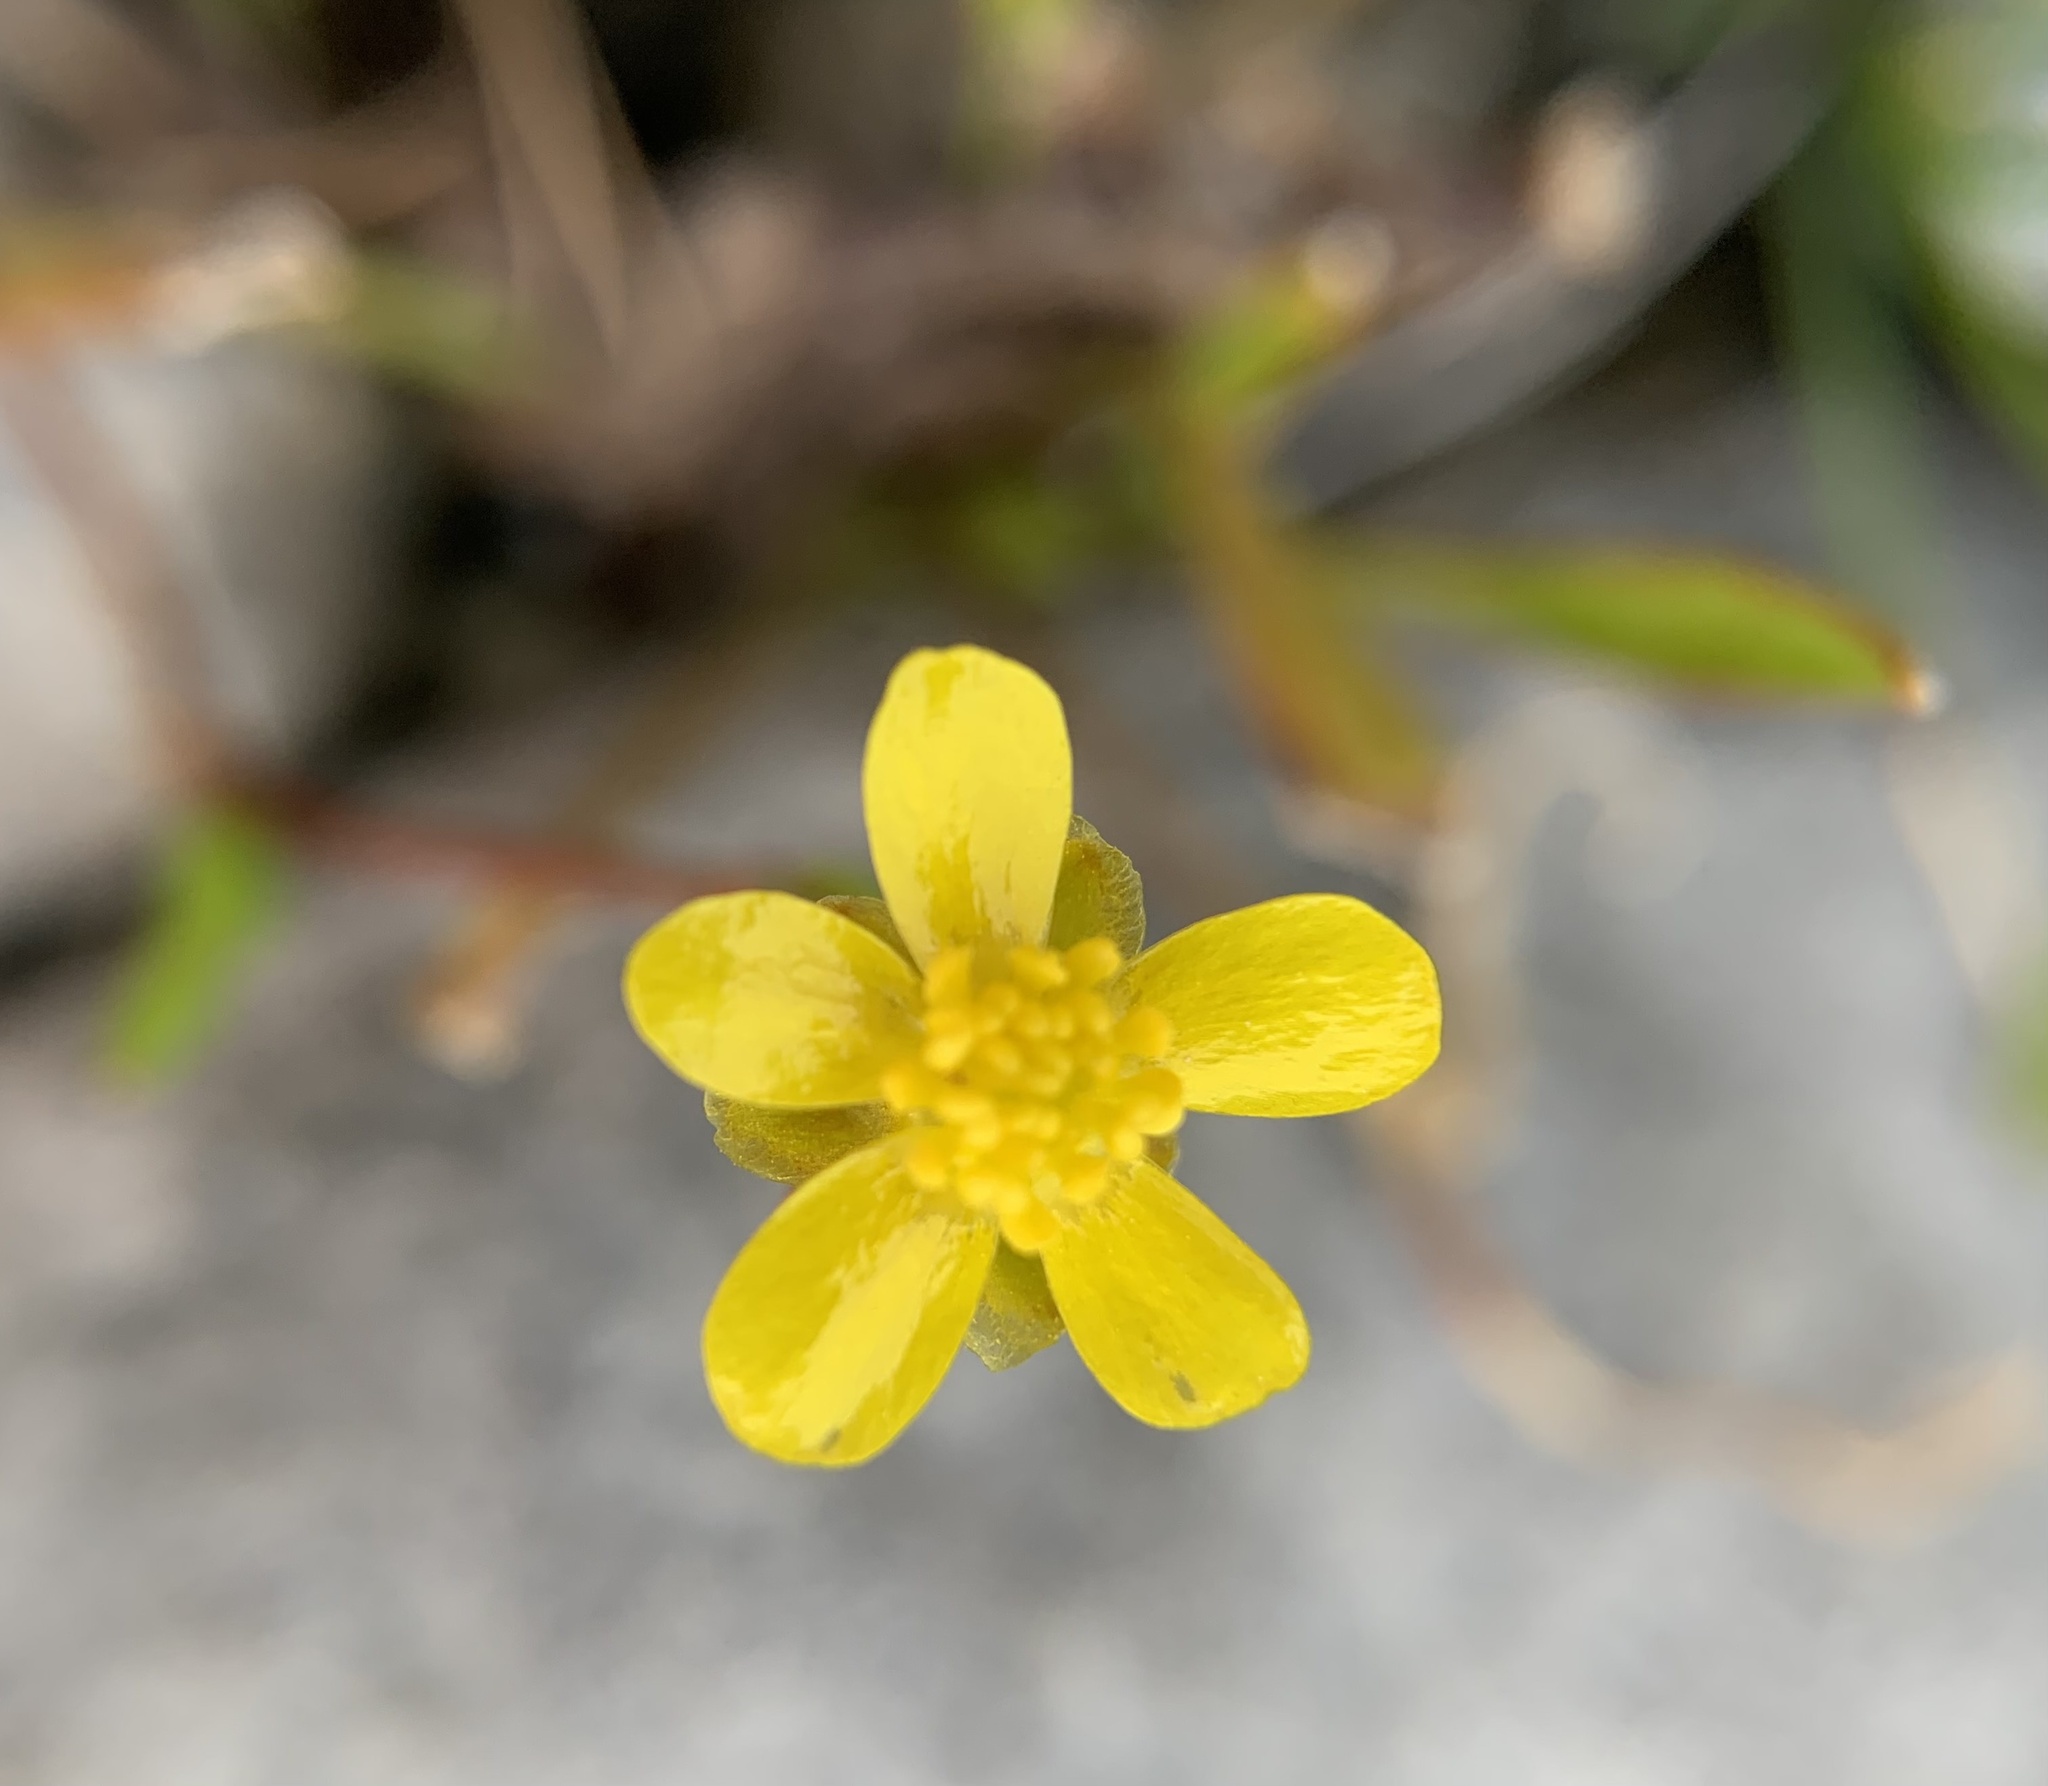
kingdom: Plantae
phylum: Tracheophyta
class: Magnoliopsida
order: Ranunculales
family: Ranunculaceae
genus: Ranunculus
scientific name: Ranunculus reptans
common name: Creeping spearwort
